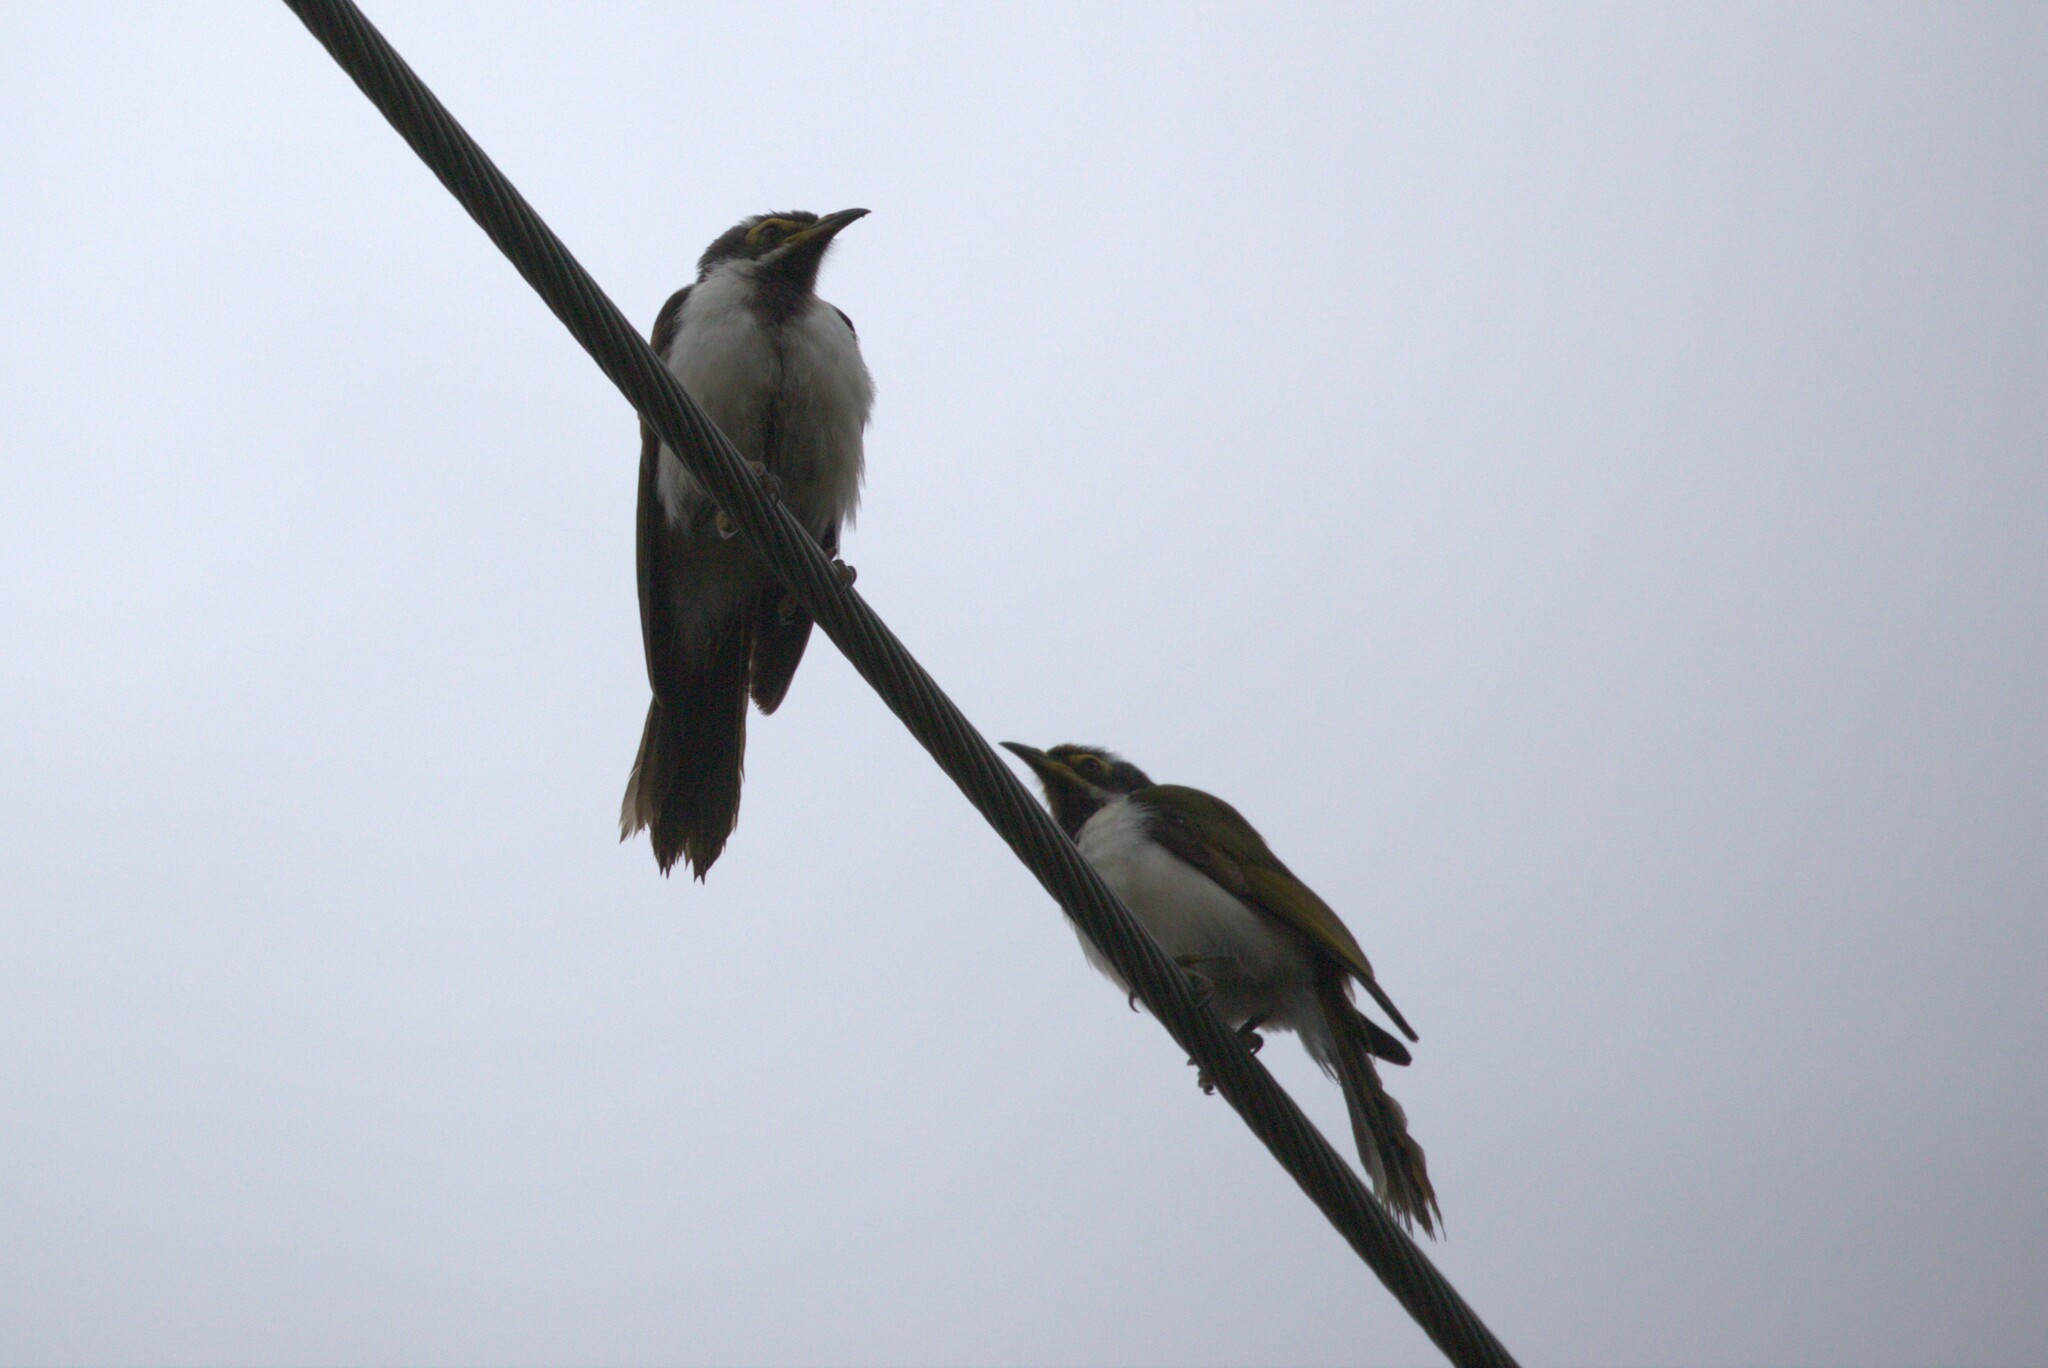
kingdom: Animalia
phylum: Chordata
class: Aves
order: Passeriformes
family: Meliphagidae
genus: Entomyzon
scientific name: Entomyzon cyanotis
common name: Blue-faced honeyeater
